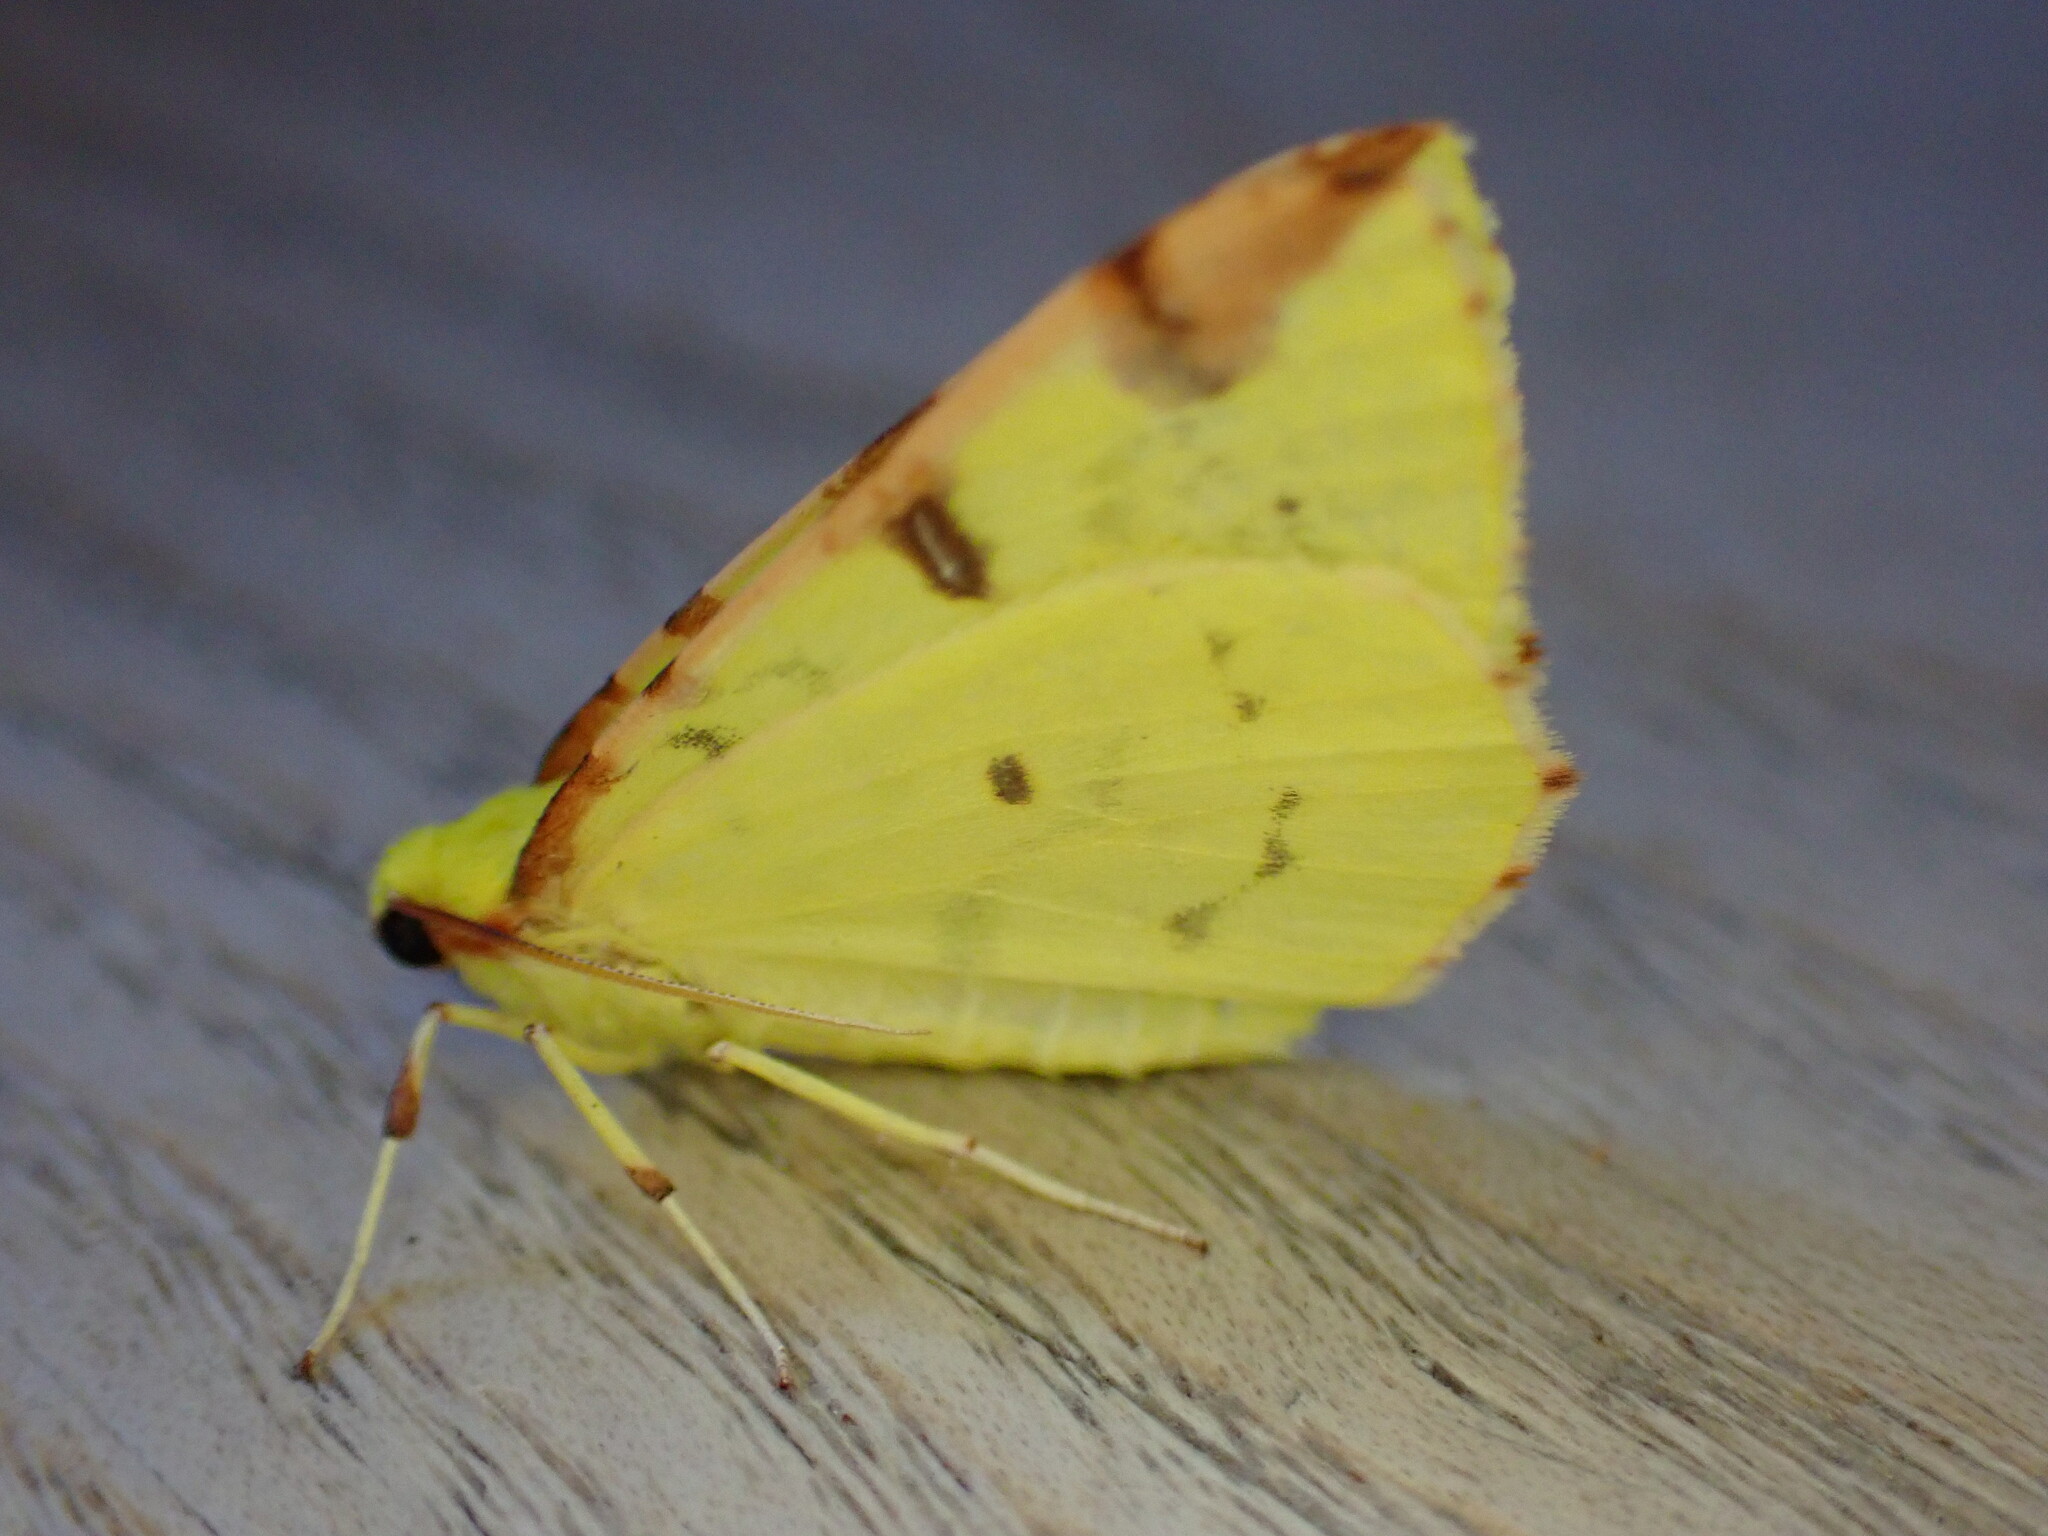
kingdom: Animalia
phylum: Arthropoda
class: Insecta
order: Lepidoptera
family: Geometridae
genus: Opisthograptis
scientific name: Opisthograptis luteolata
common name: Brimstone moth
